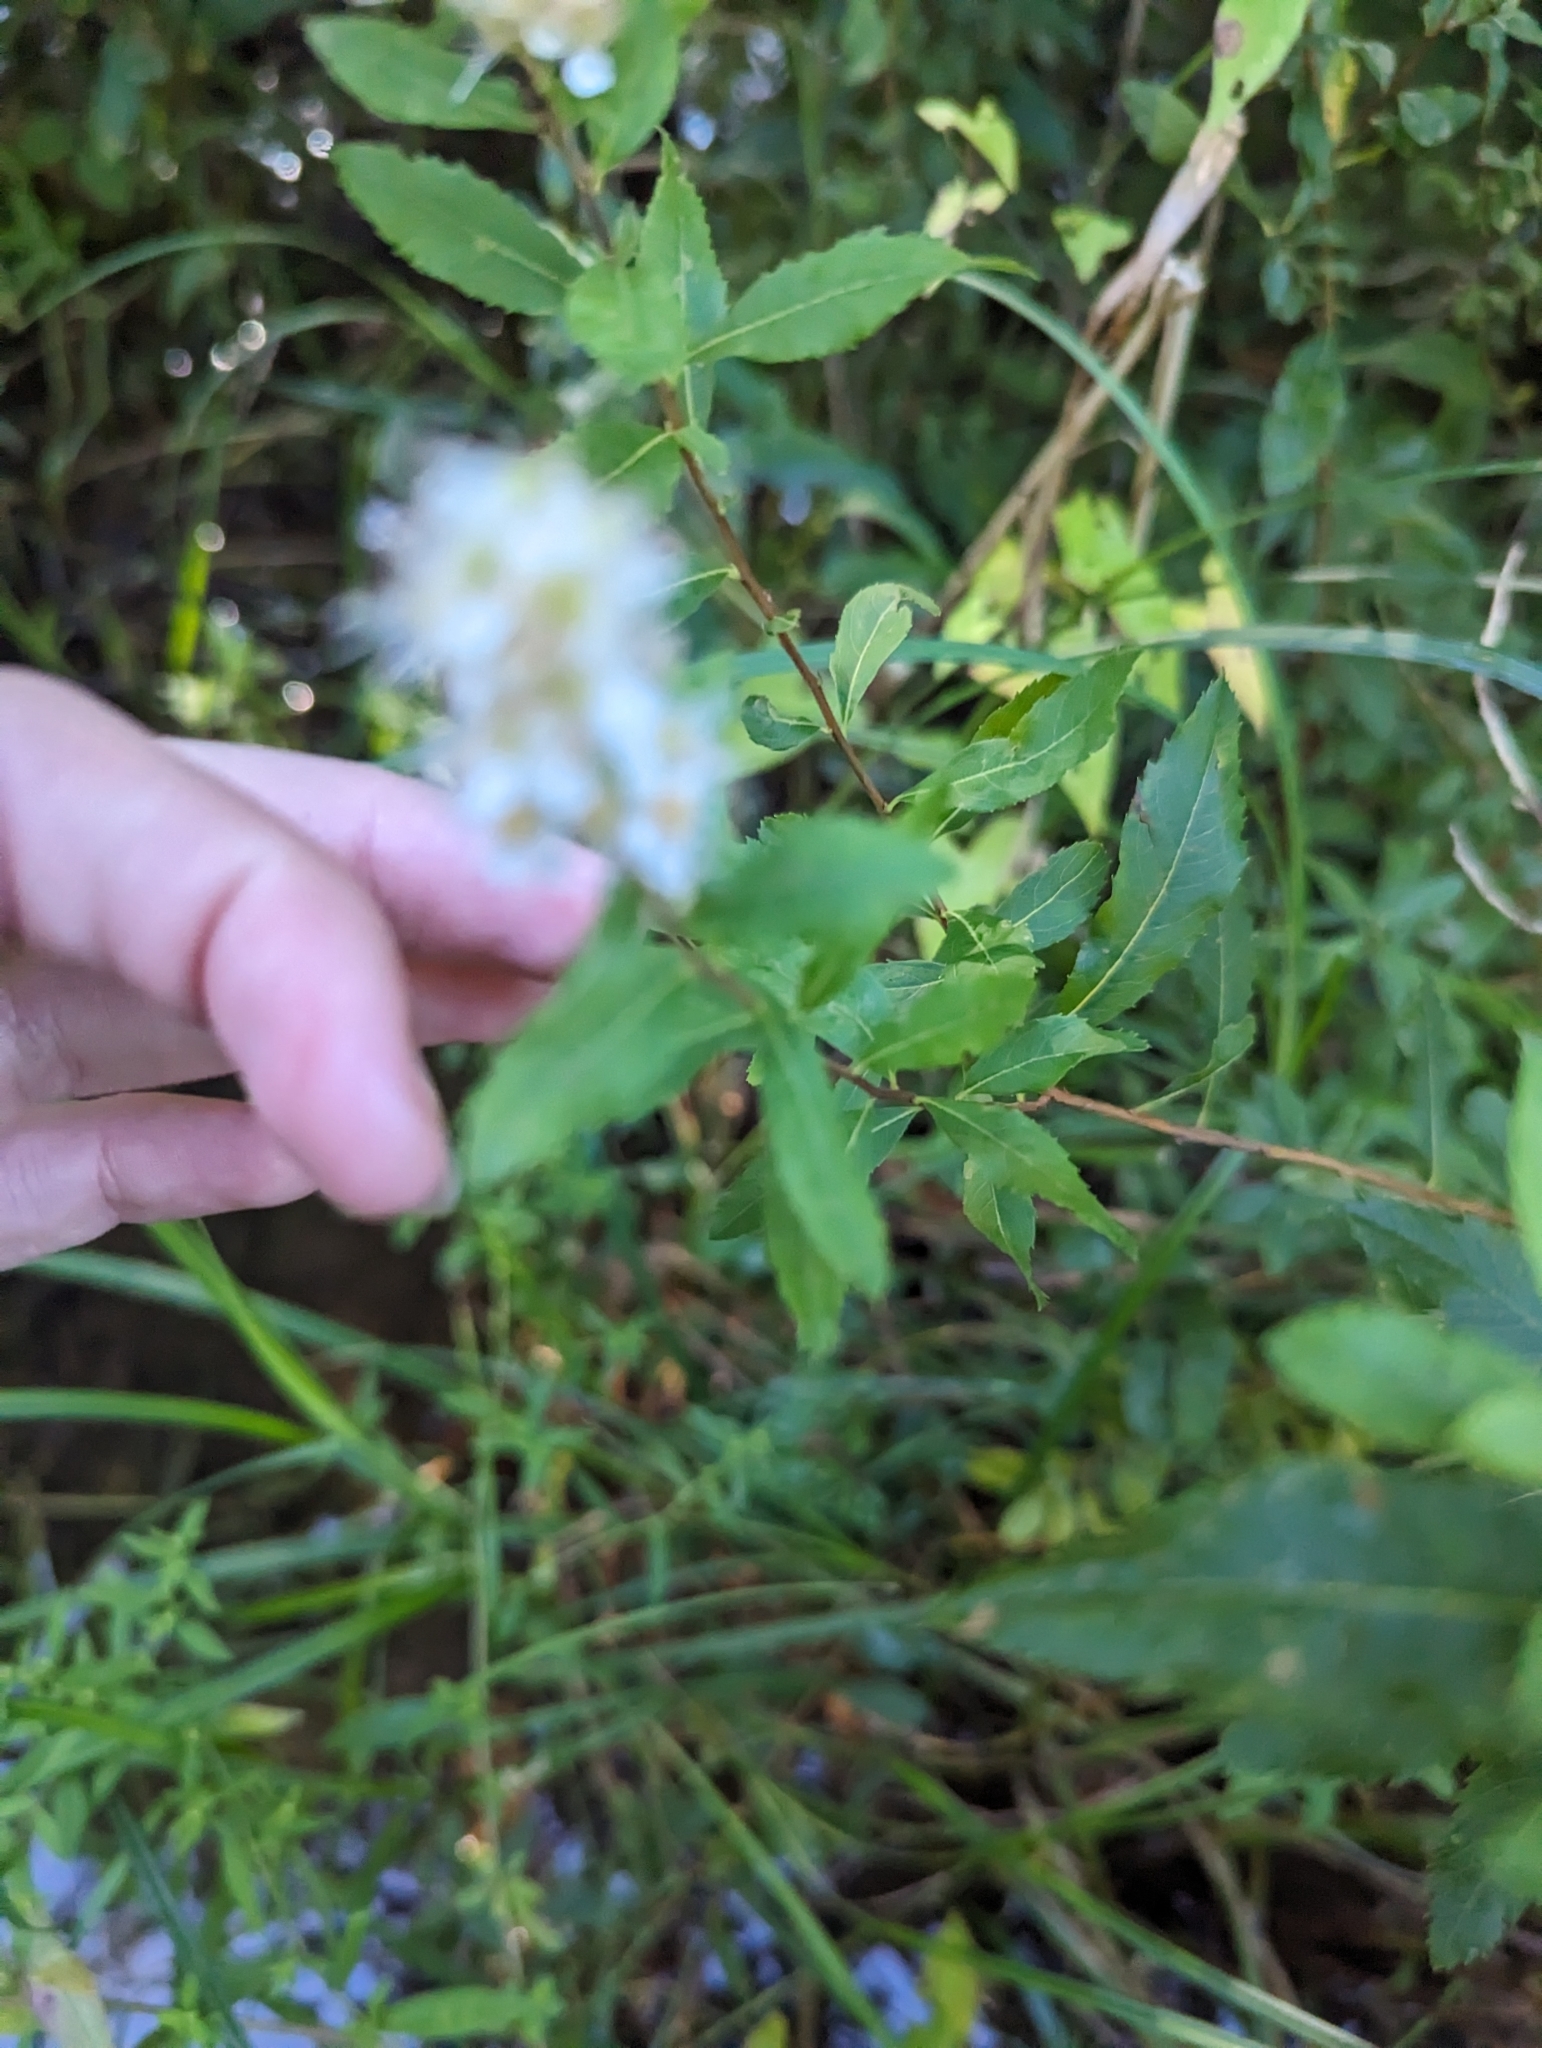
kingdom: Plantae
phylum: Tracheophyta
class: Magnoliopsida
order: Rosales
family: Rosaceae
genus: Spiraea
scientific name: Spiraea alba
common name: Pale bridewort
